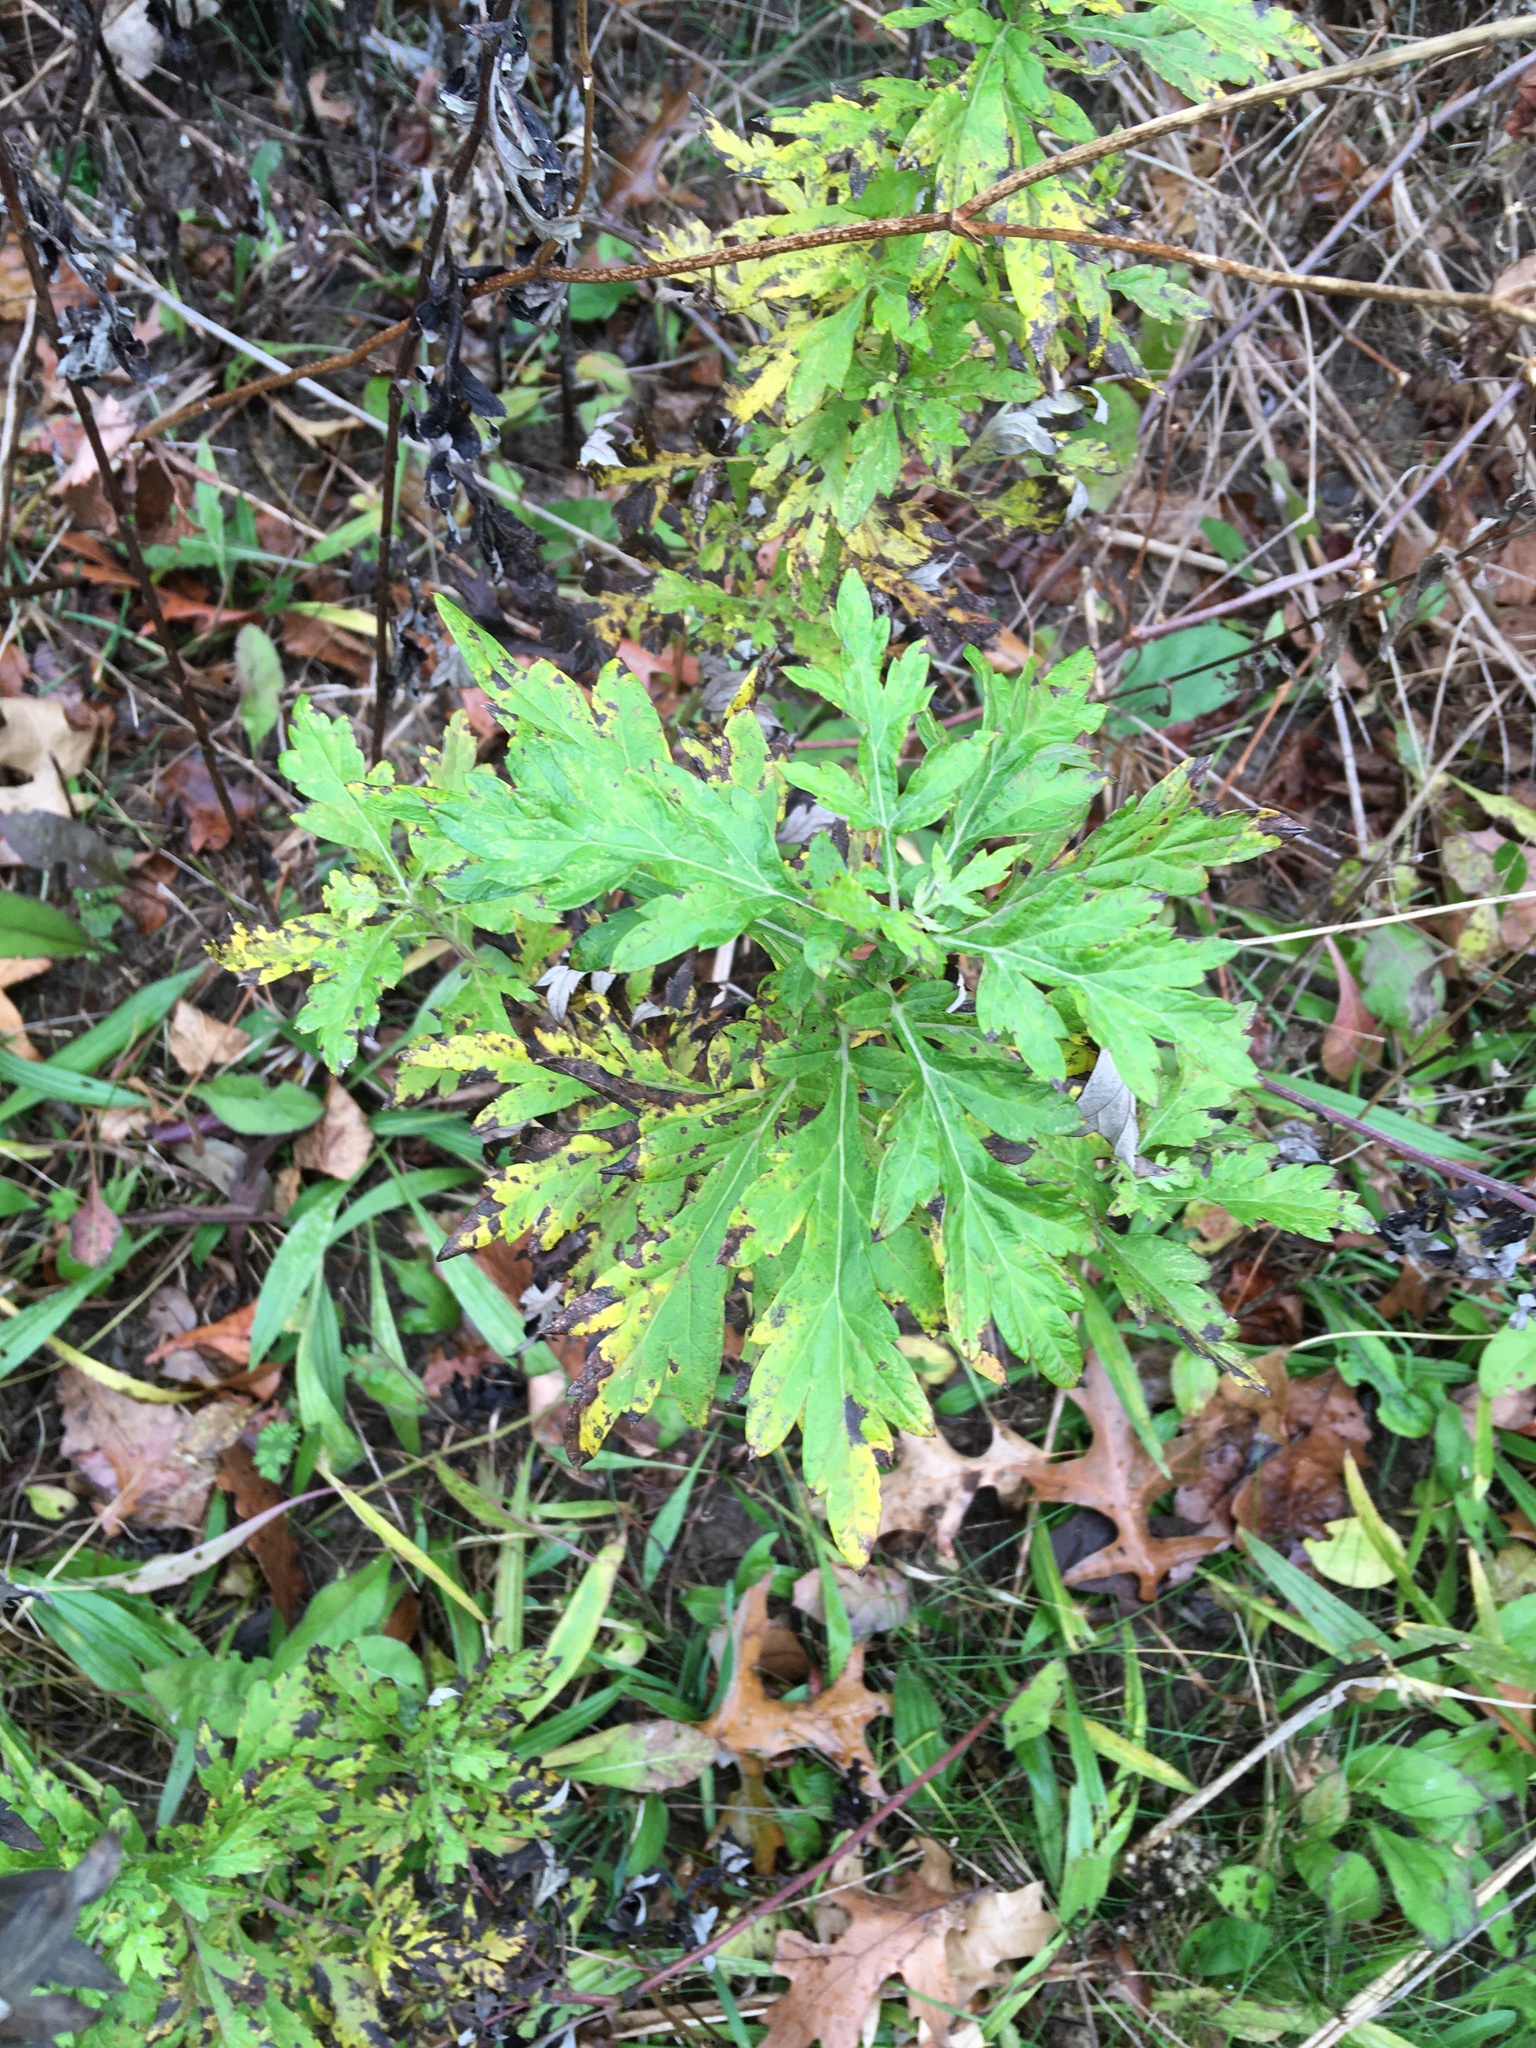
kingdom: Plantae
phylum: Tracheophyta
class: Magnoliopsida
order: Asterales
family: Asteraceae
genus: Artemisia
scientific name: Artemisia vulgaris
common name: Mugwort
